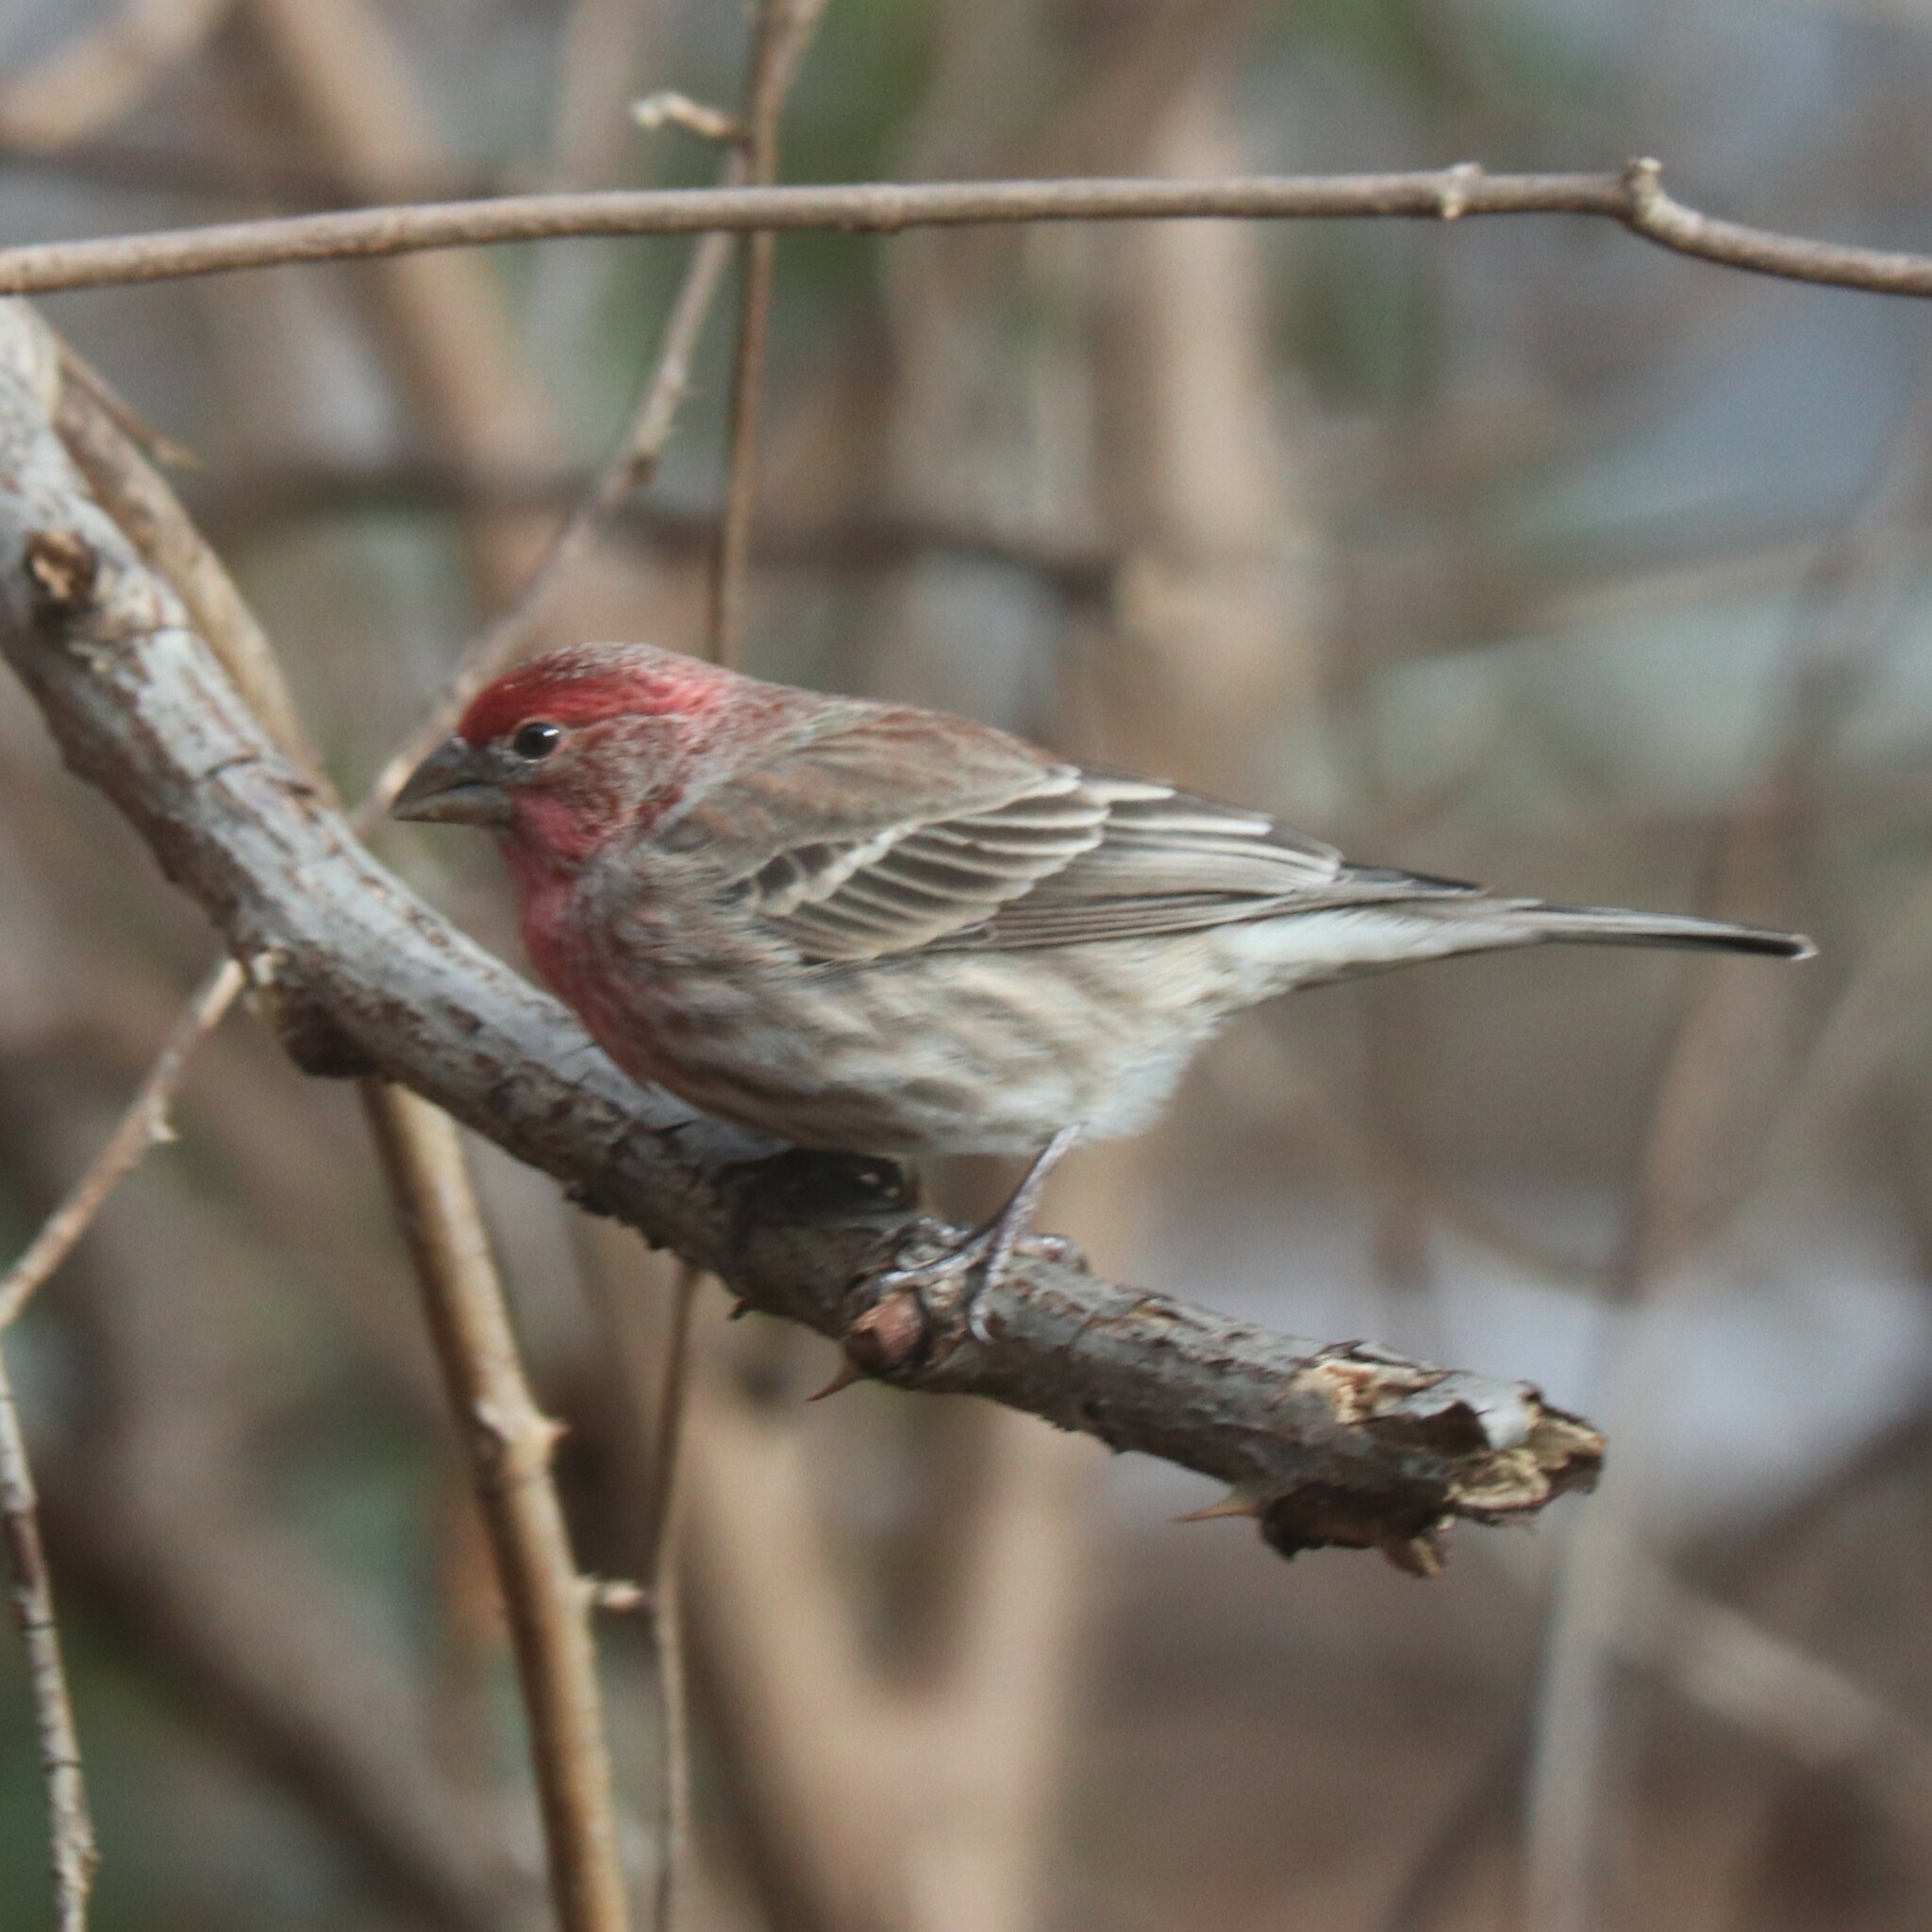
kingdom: Animalia
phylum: Chordata
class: Aves
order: Passeriformes
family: Fringillidae
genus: Haemorhous
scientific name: Haemorhous mexicanus
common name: House finch
